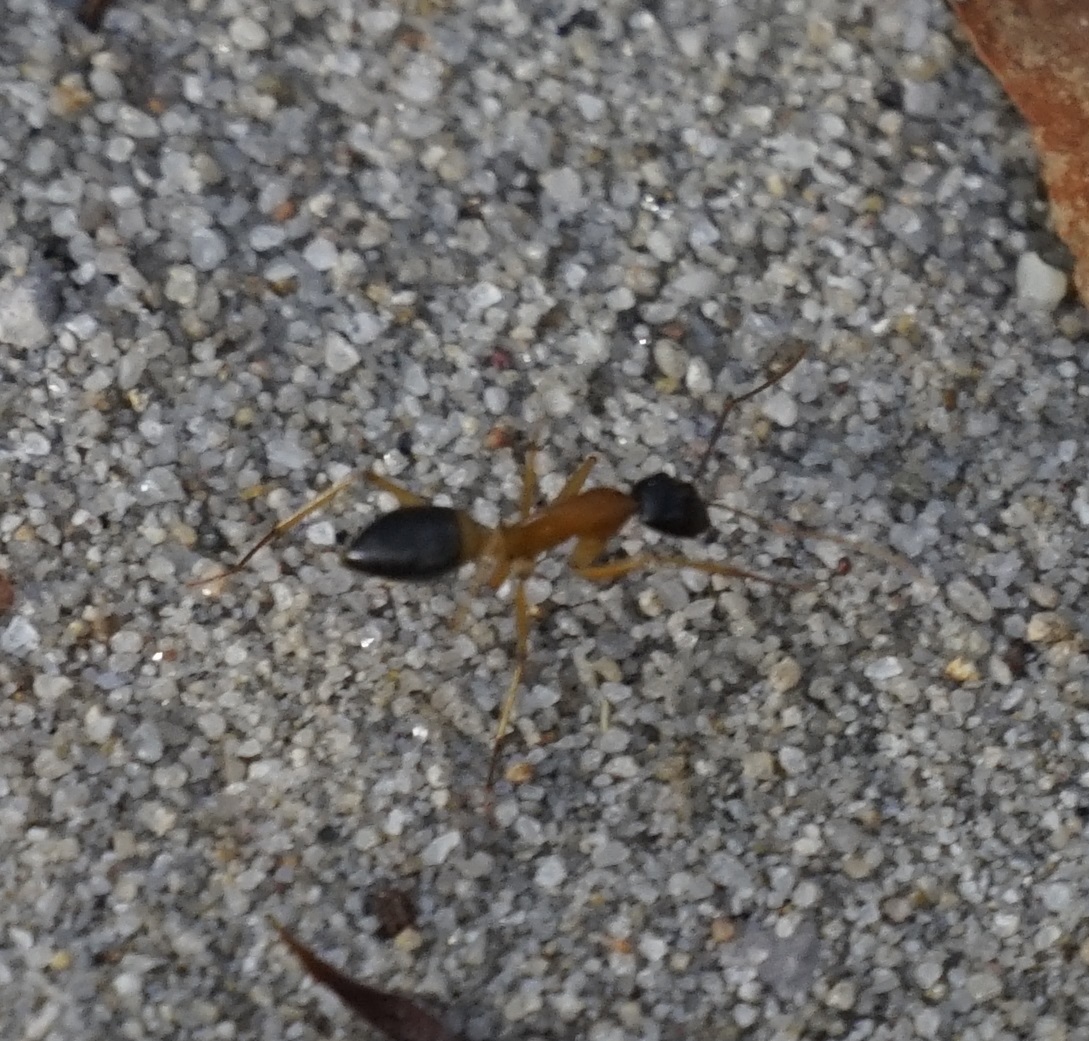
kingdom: Animalia
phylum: Arthropoda
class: Insecta
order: Hymenoptera
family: Formicidae
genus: Camponotus
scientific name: Camponotus consobrinus
